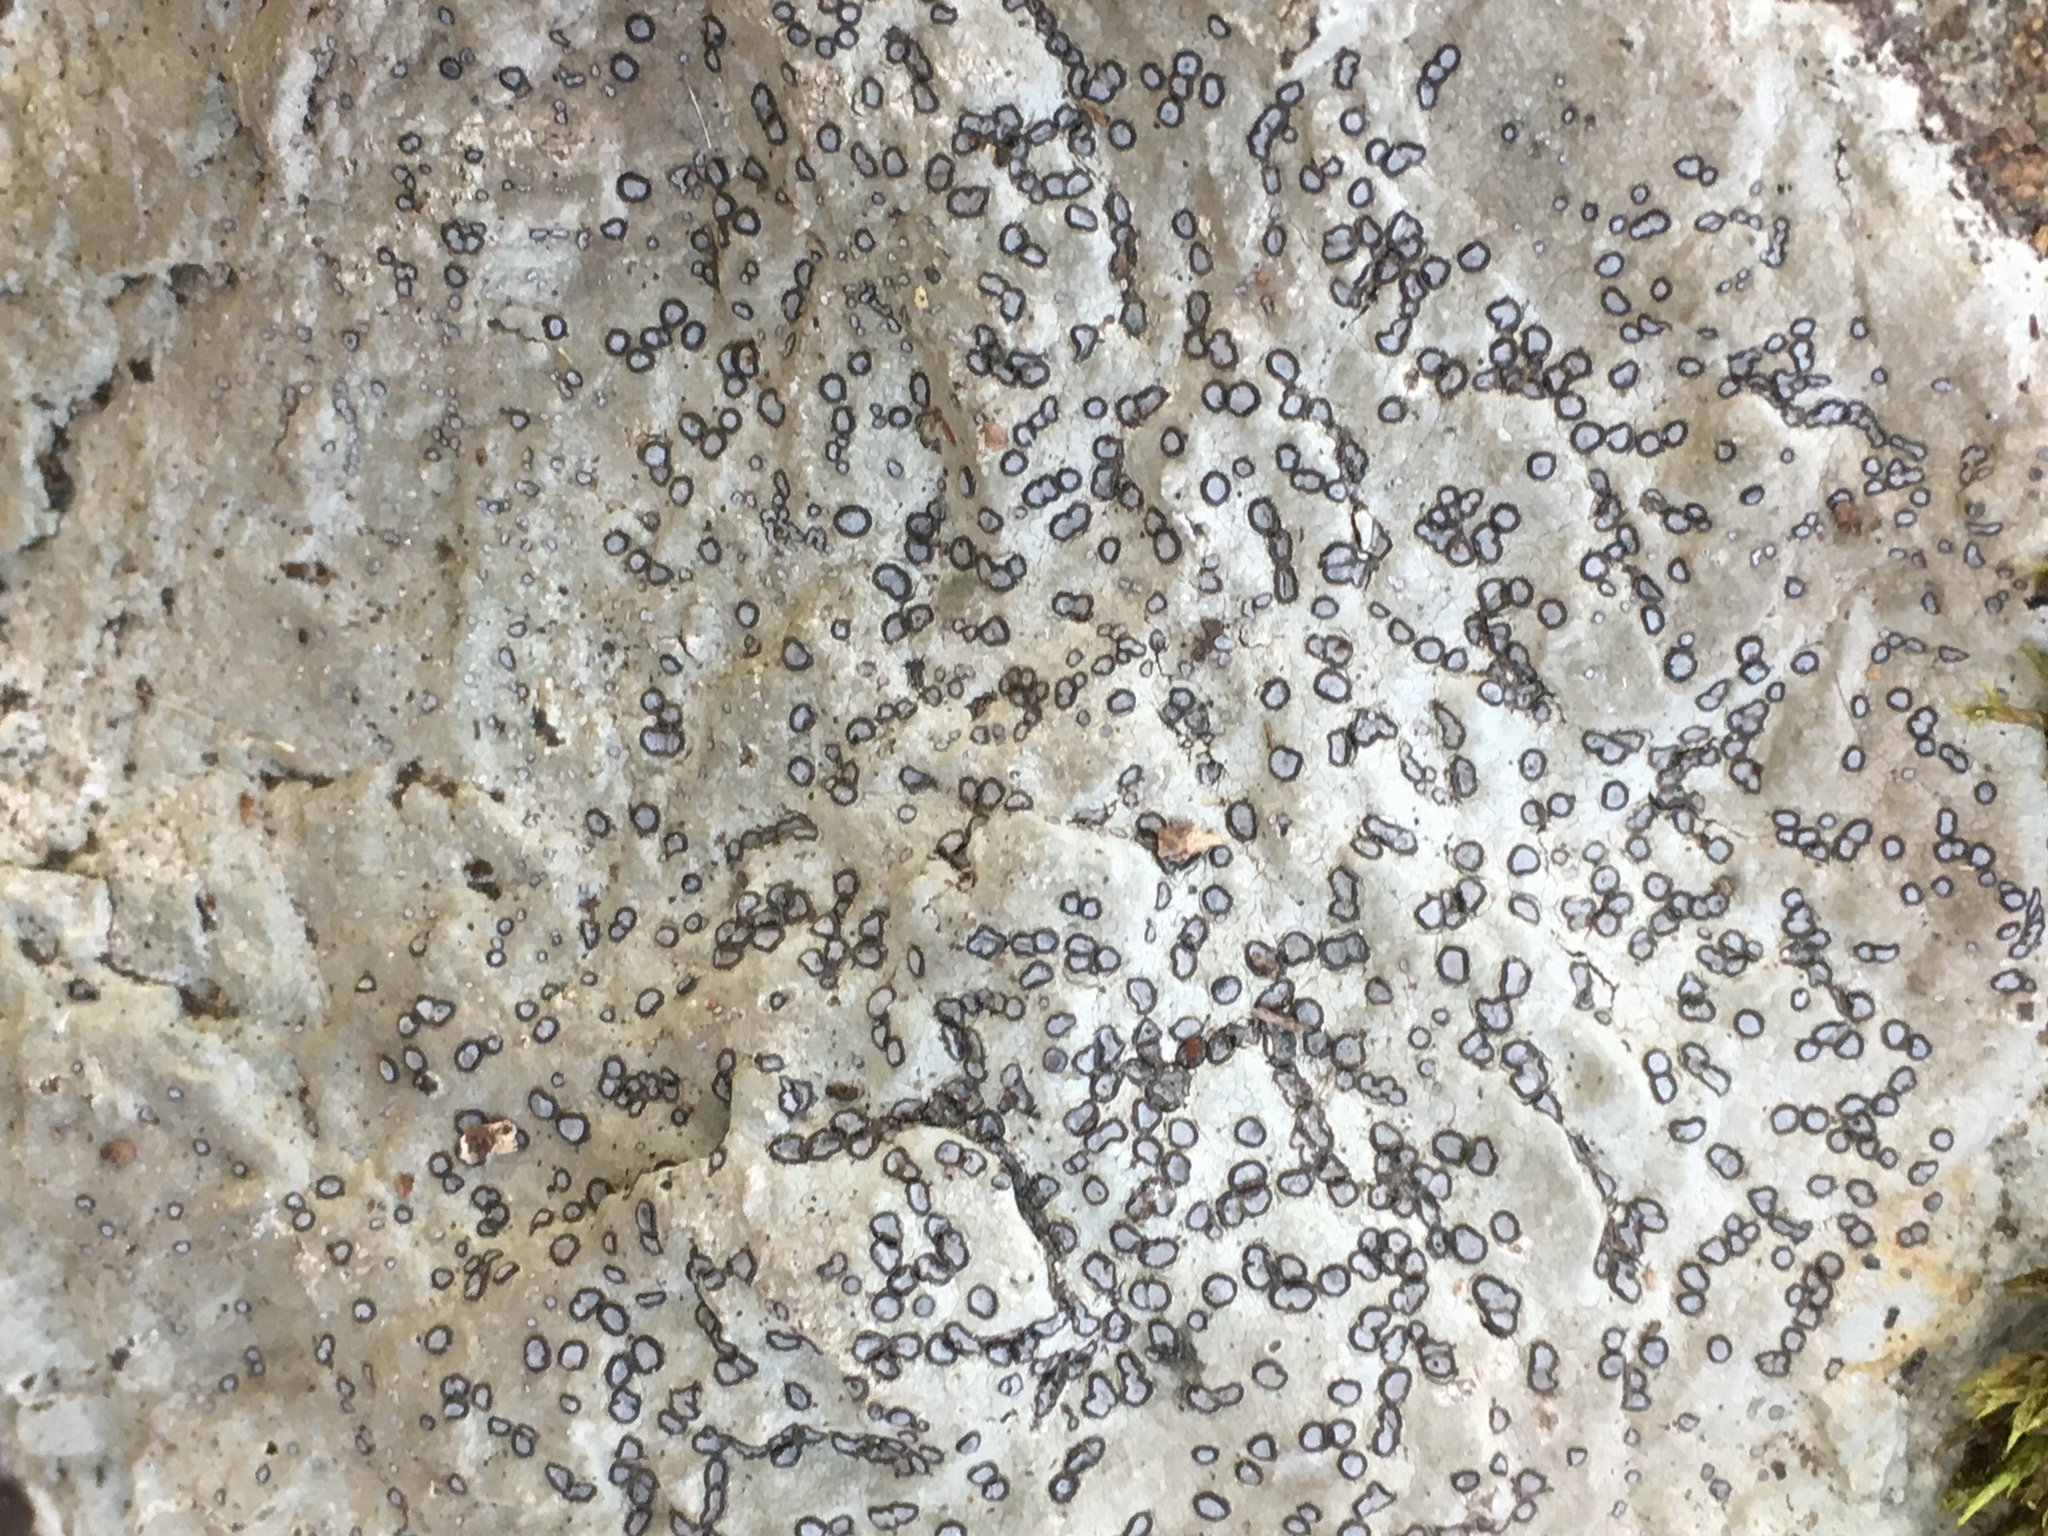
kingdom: Fungi
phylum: Ascomycota
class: Lecanoromycetes
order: Lecideales
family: Lecideaceae
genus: Porpidia
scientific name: Porpidia albocaerulescens
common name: Smokey-eyed boulder lichen
